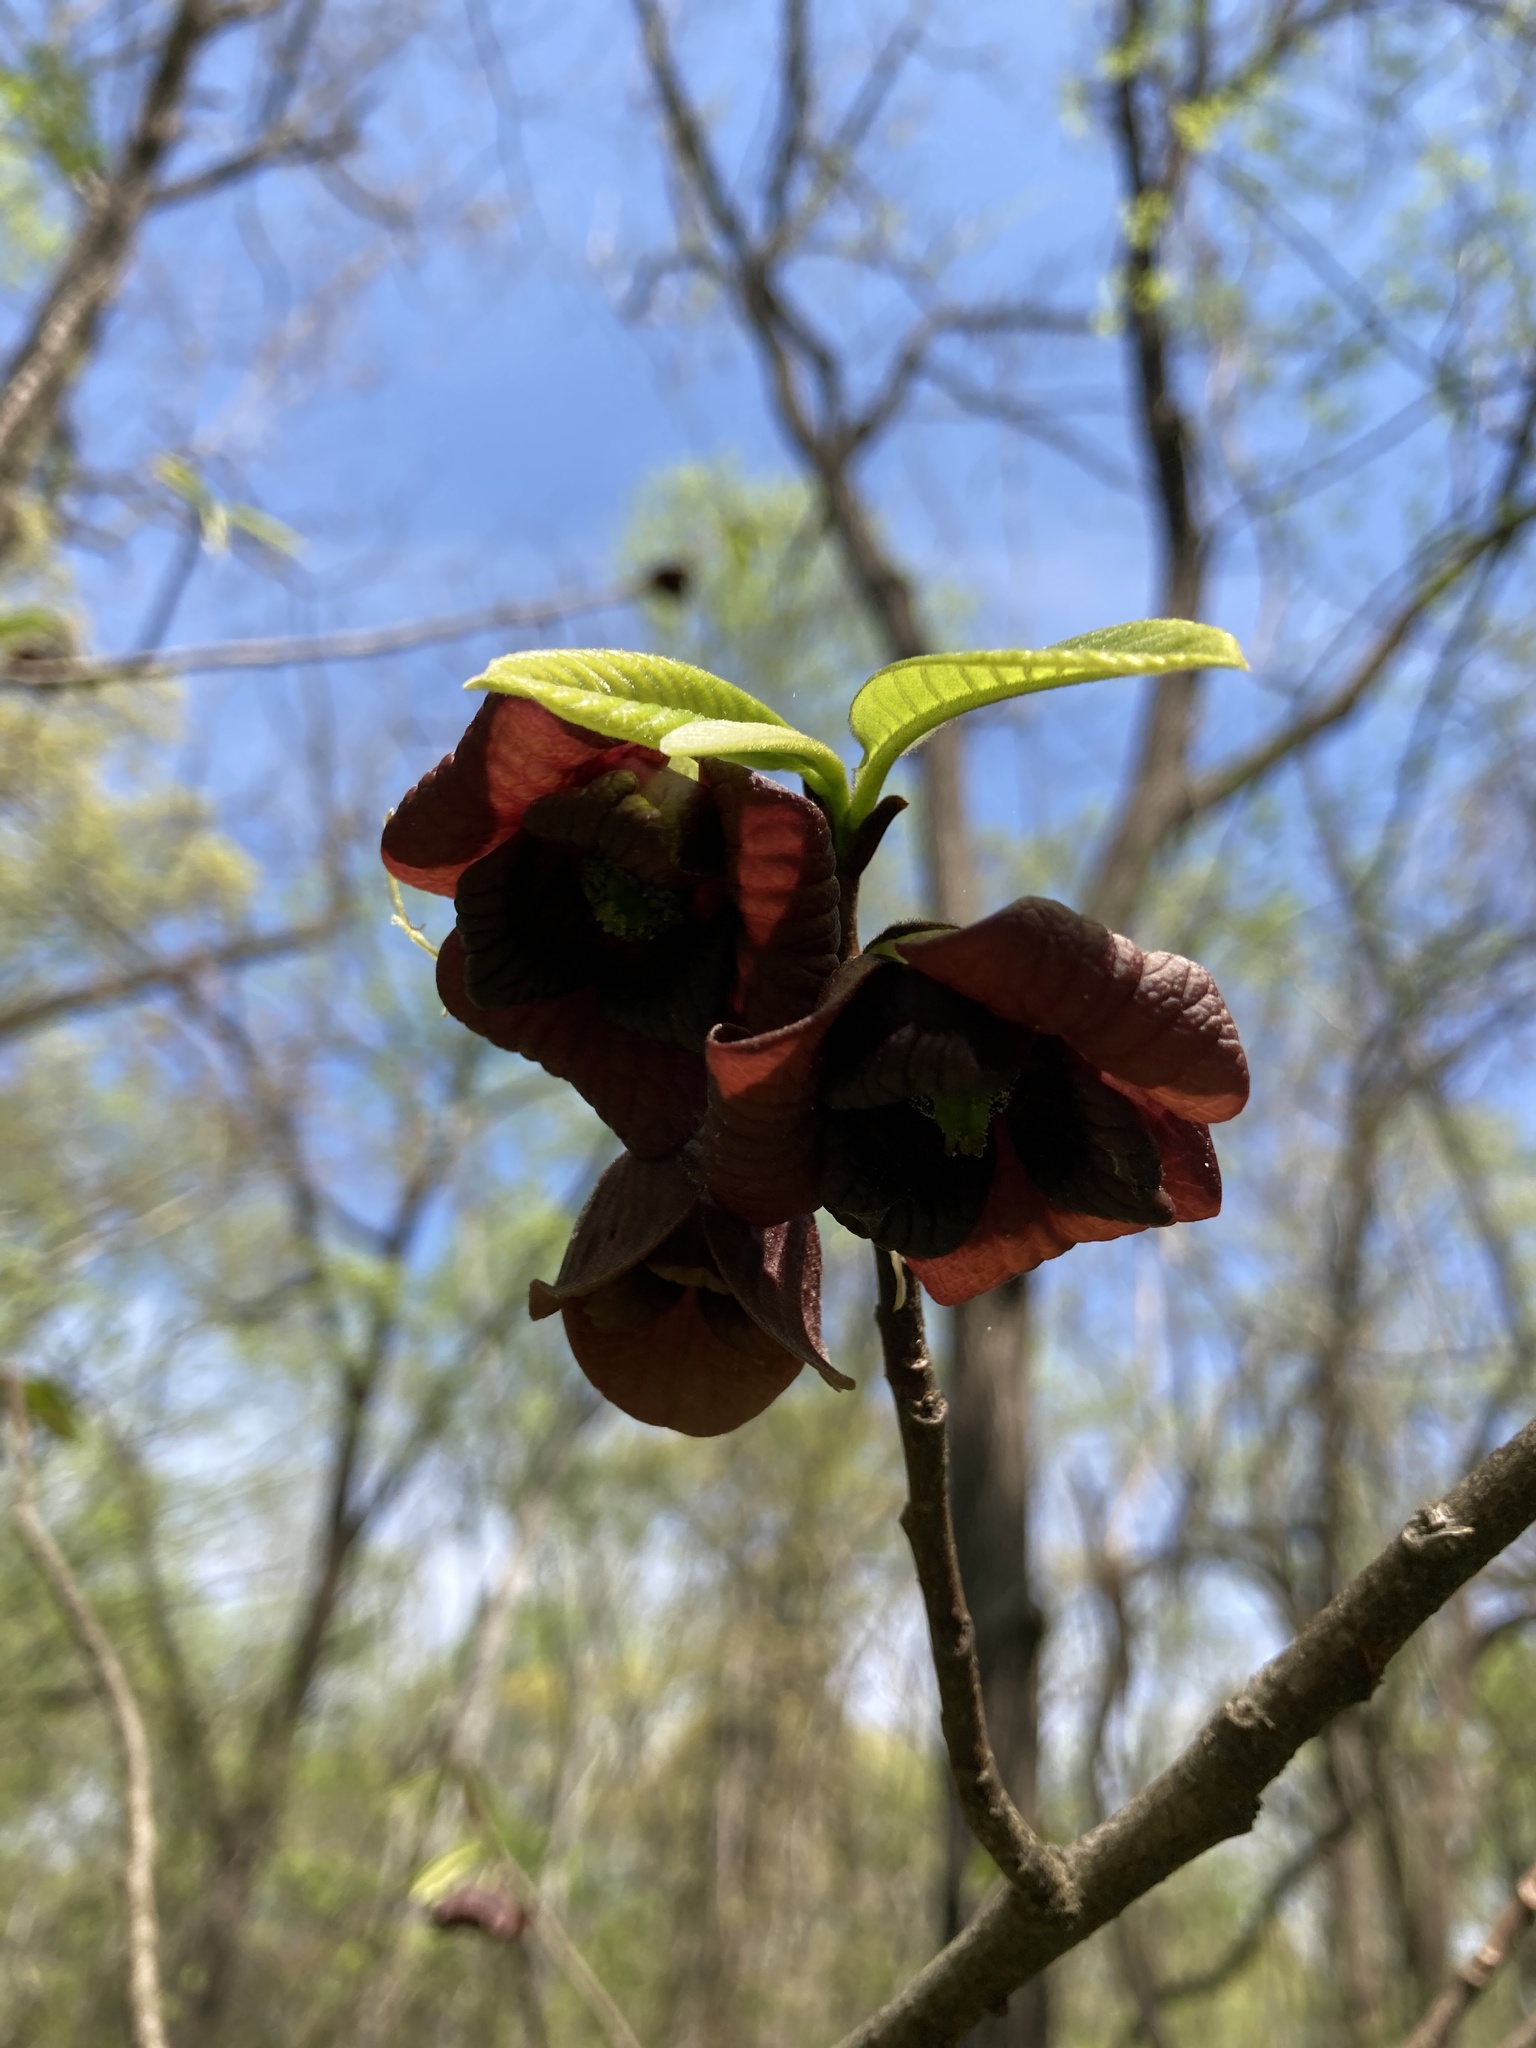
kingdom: Plantae
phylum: Tracheophyta
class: Magnoliopsida
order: Magnoliales
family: Annonaceae
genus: Asimina
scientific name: Asimina triloba
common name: Dog-banana
